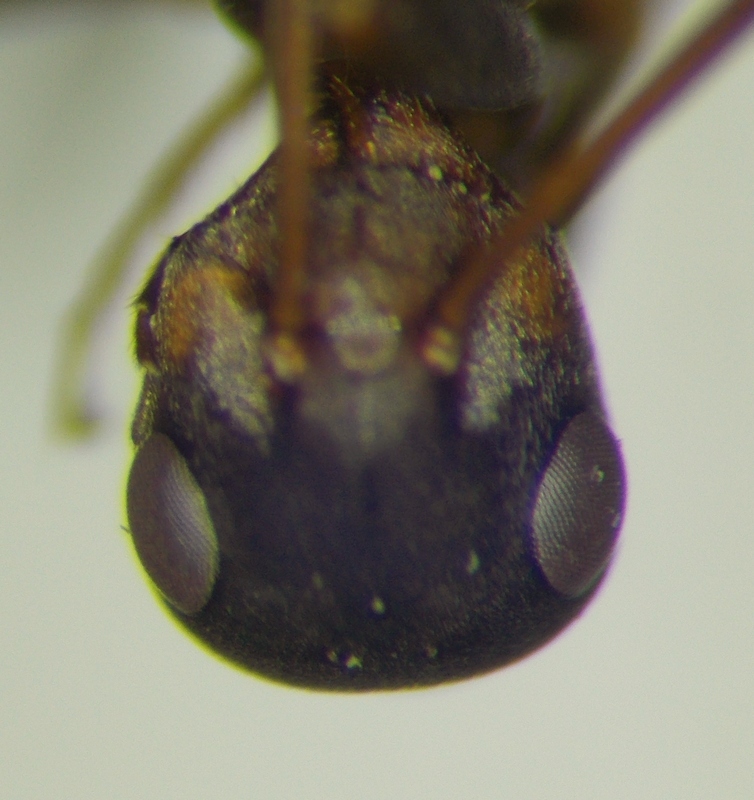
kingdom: Animalia
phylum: Arthropoda
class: Insecta
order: Hymenoptera
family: Formicidae
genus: Formica
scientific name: Formica cunicularia
